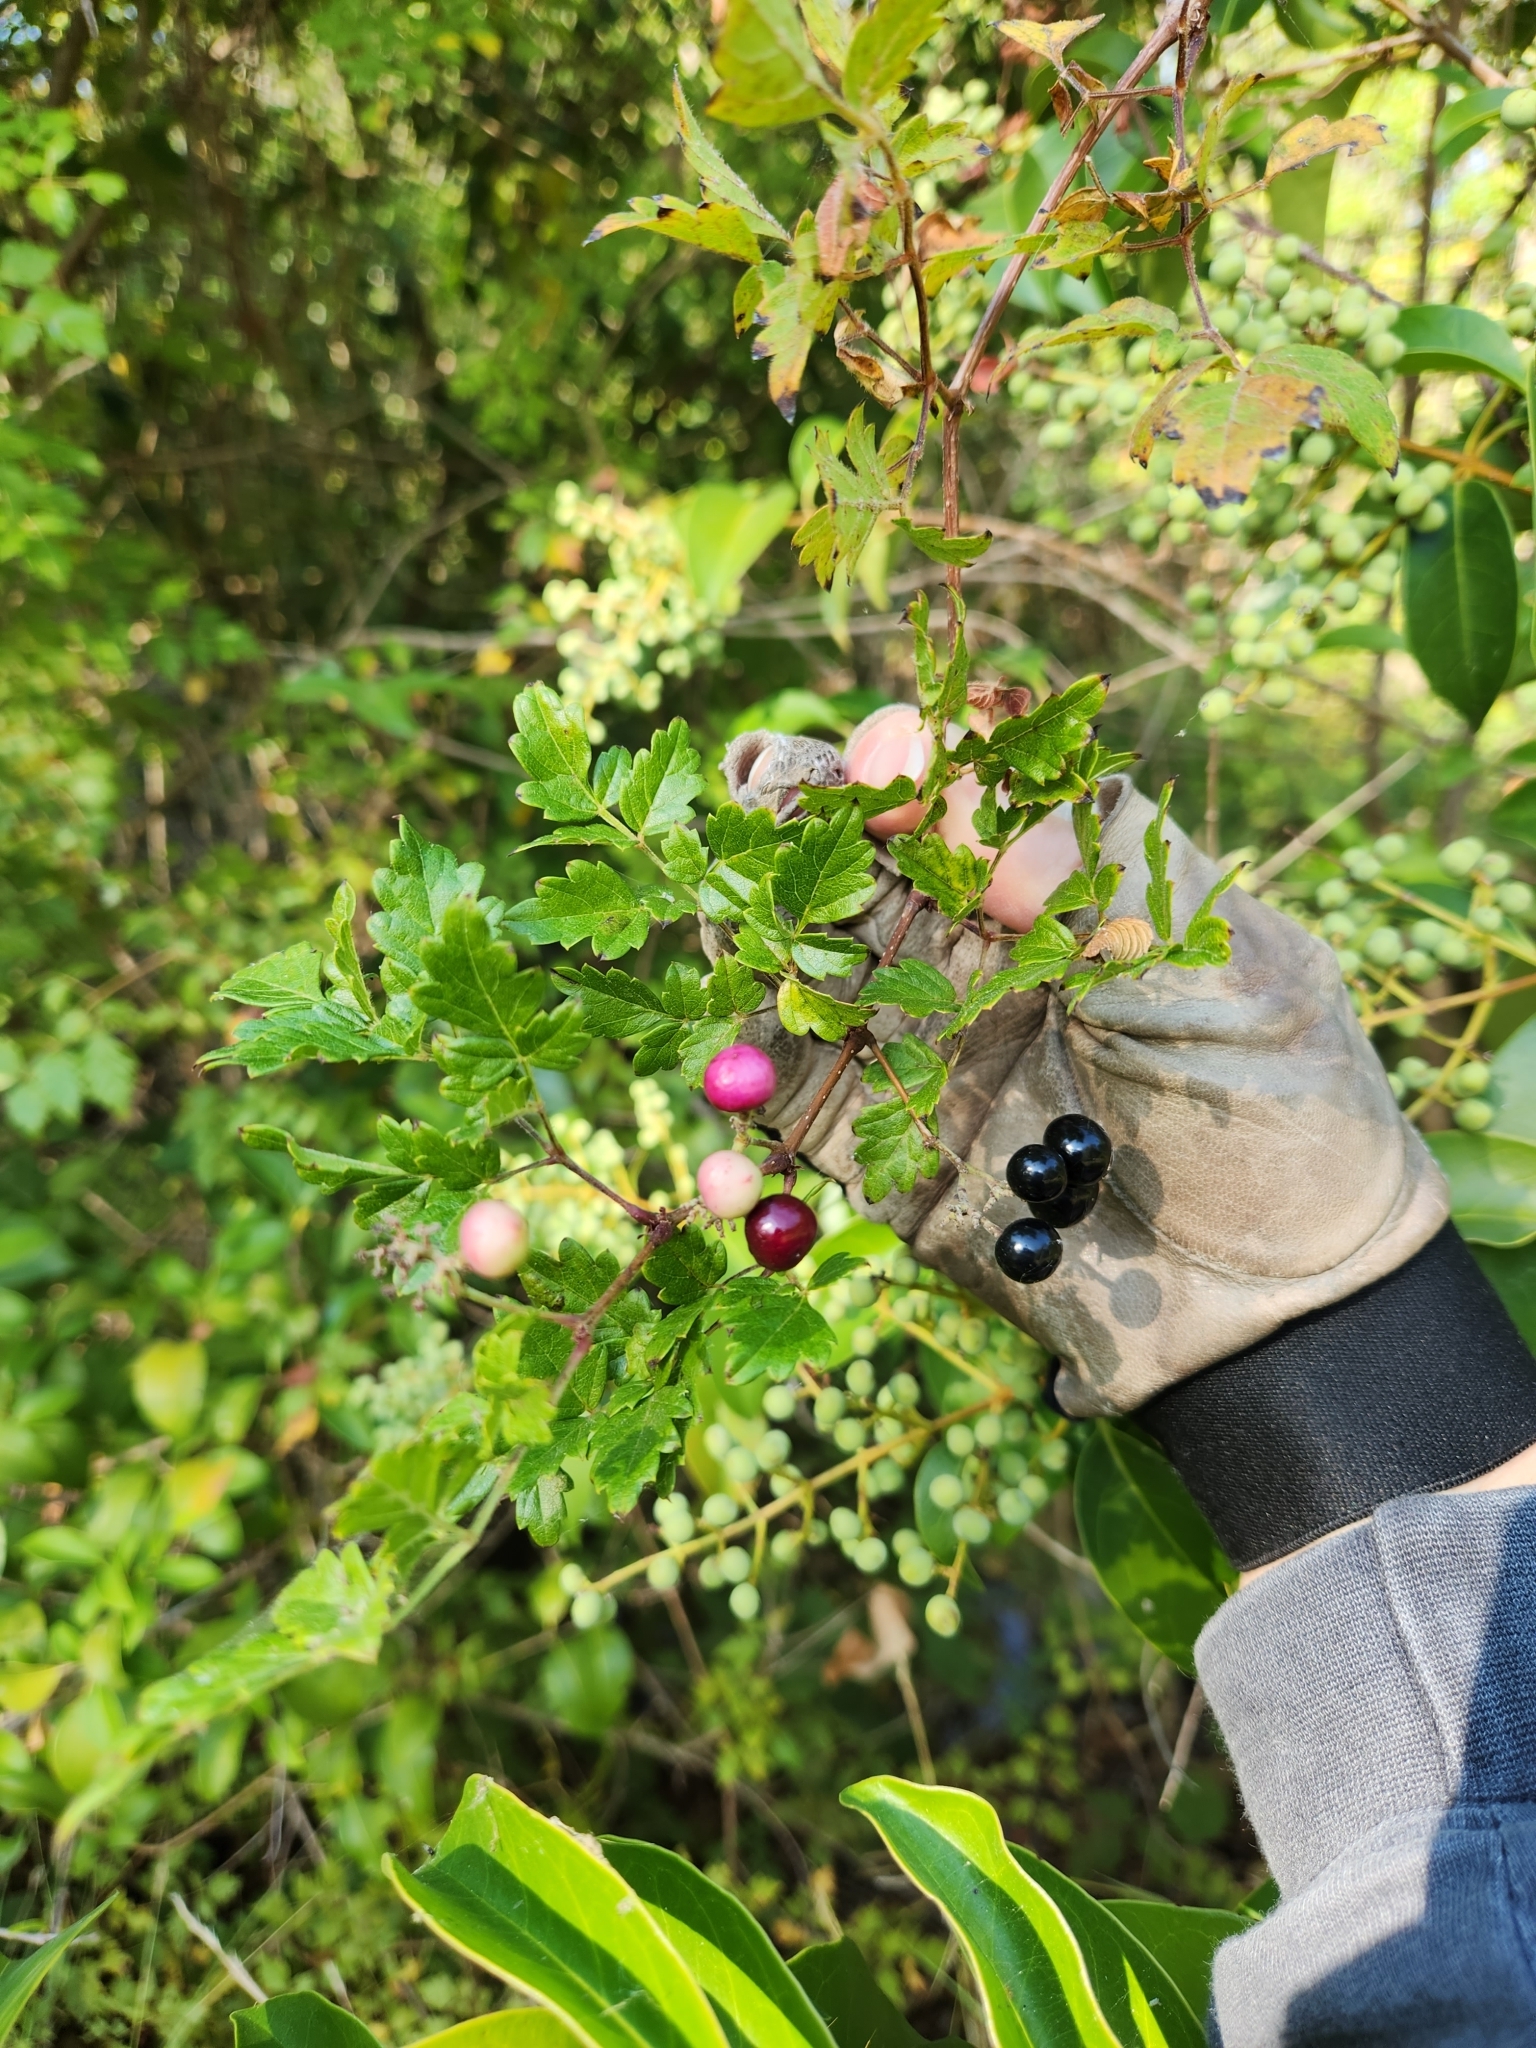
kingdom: Plantae
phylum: Tracheophyta
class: Magnoliopsida
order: Vitales
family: Vitaceae
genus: Nekemias
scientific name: Nekemias arborea
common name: Peppervine
